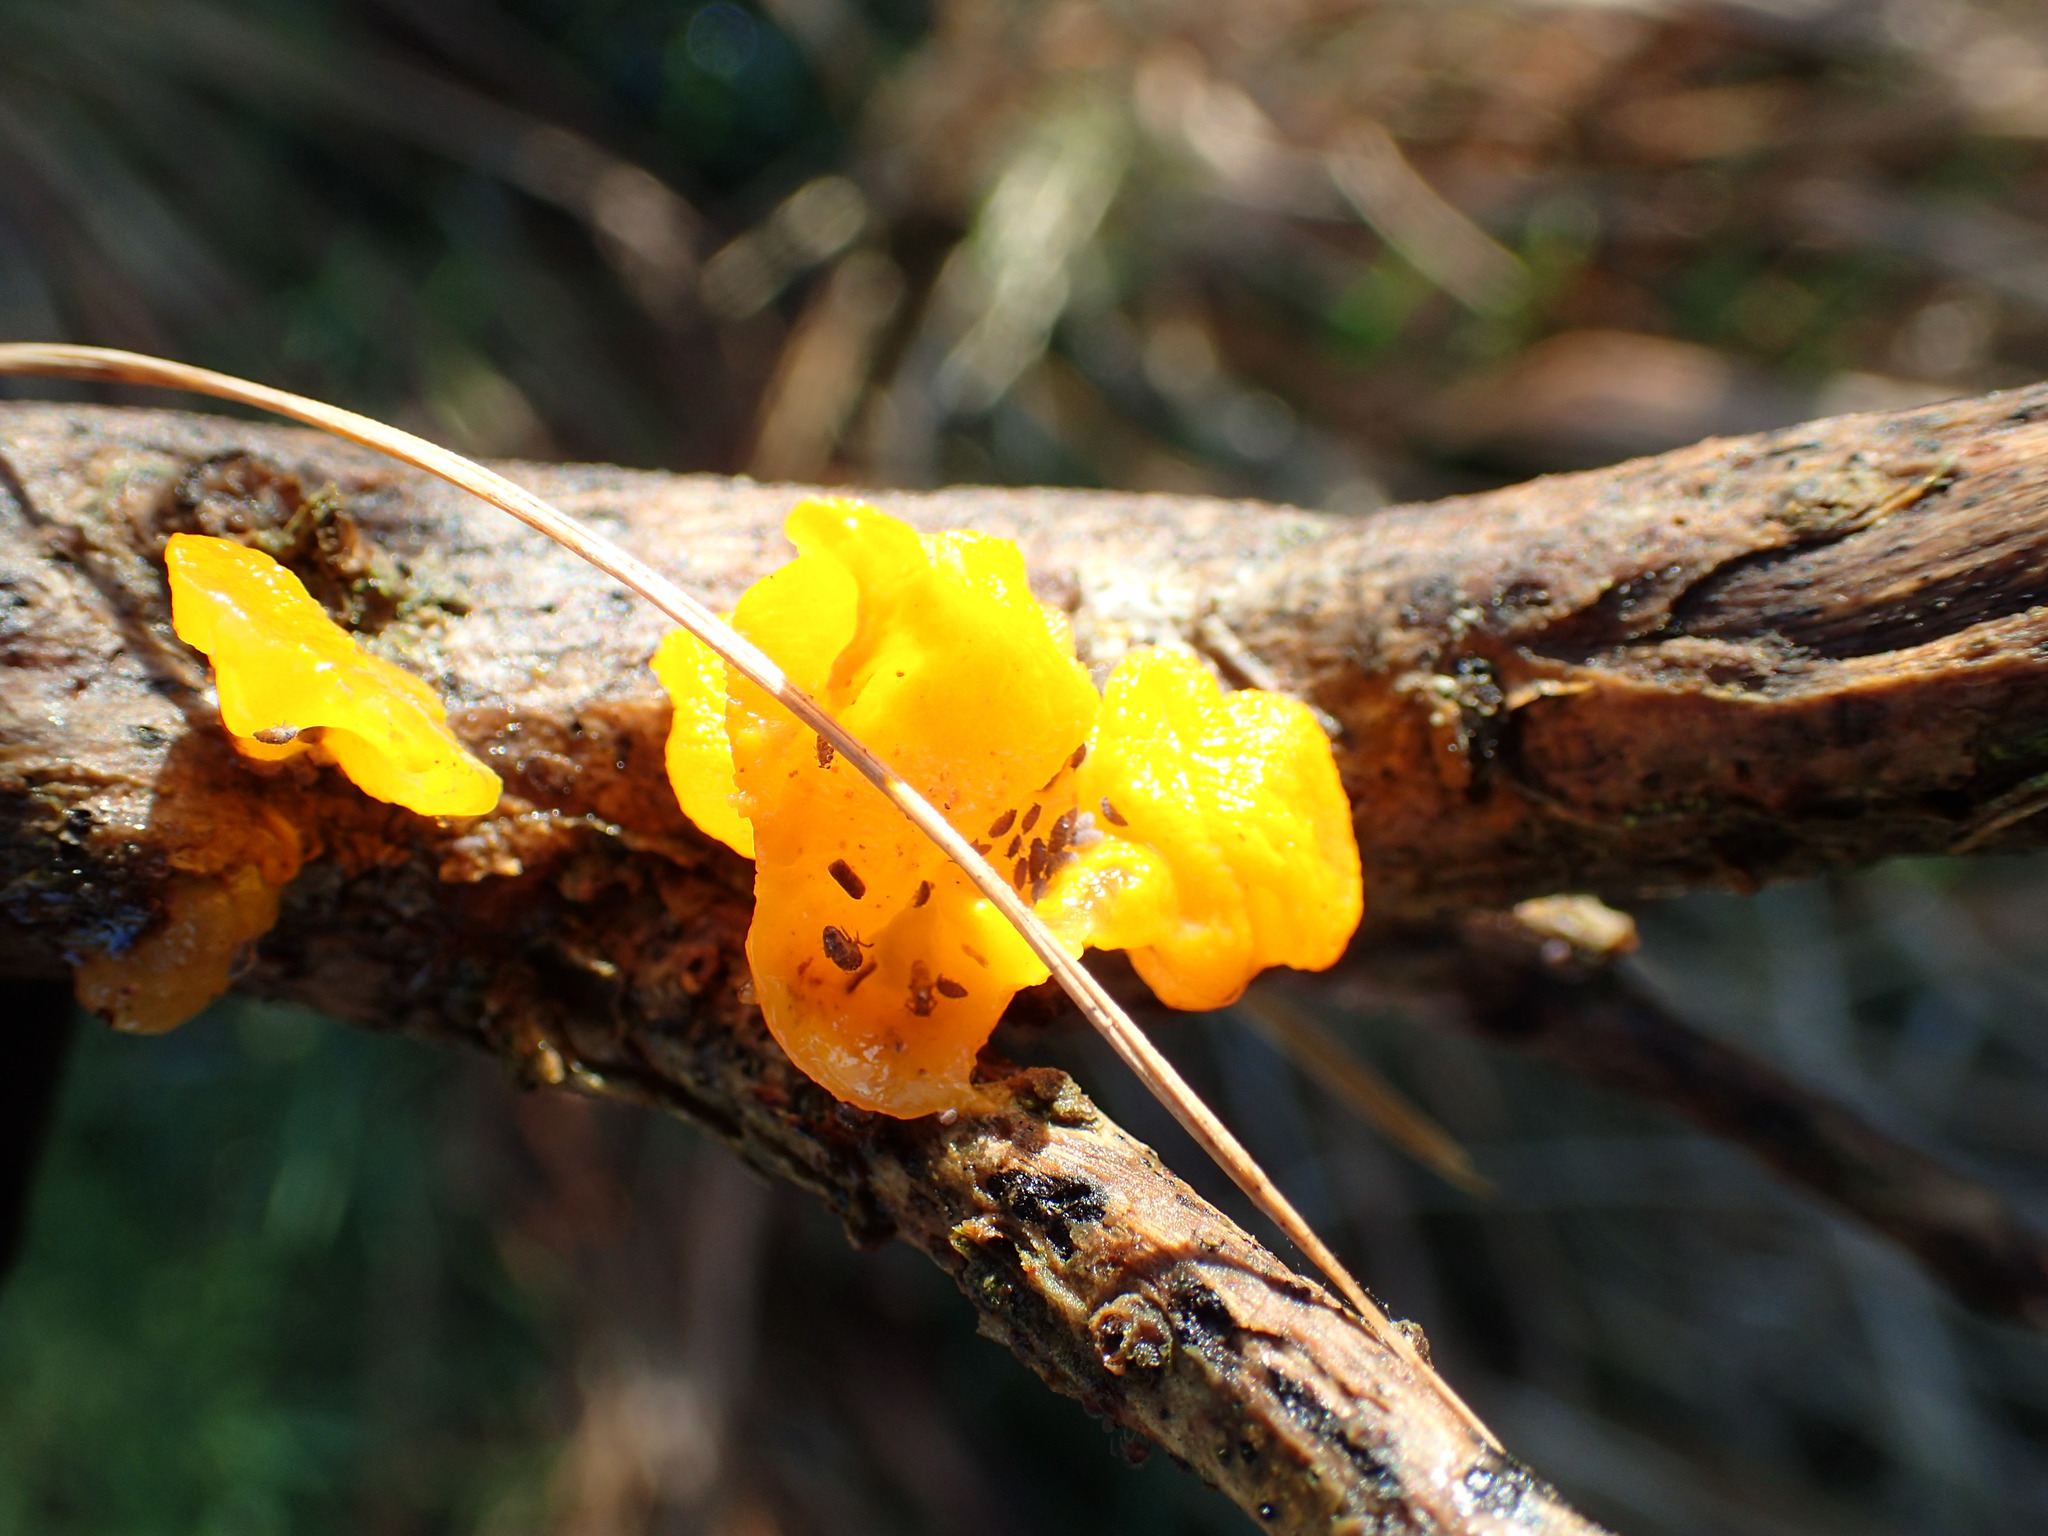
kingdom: Fungi
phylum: Basidiomycota
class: Tremellomycetes
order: Tremellales
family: Tremellaceae
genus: Tremella
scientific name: Tremella mesenterica
